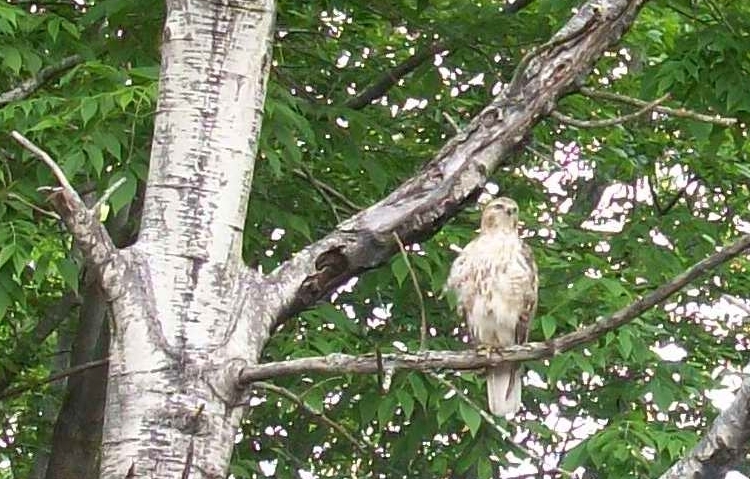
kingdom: Animalia
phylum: Chordata
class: Aves
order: Accipitriformes
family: Accipitridae
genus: Buteo
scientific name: Buteo jamaicensis
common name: Red-tailed hawk
